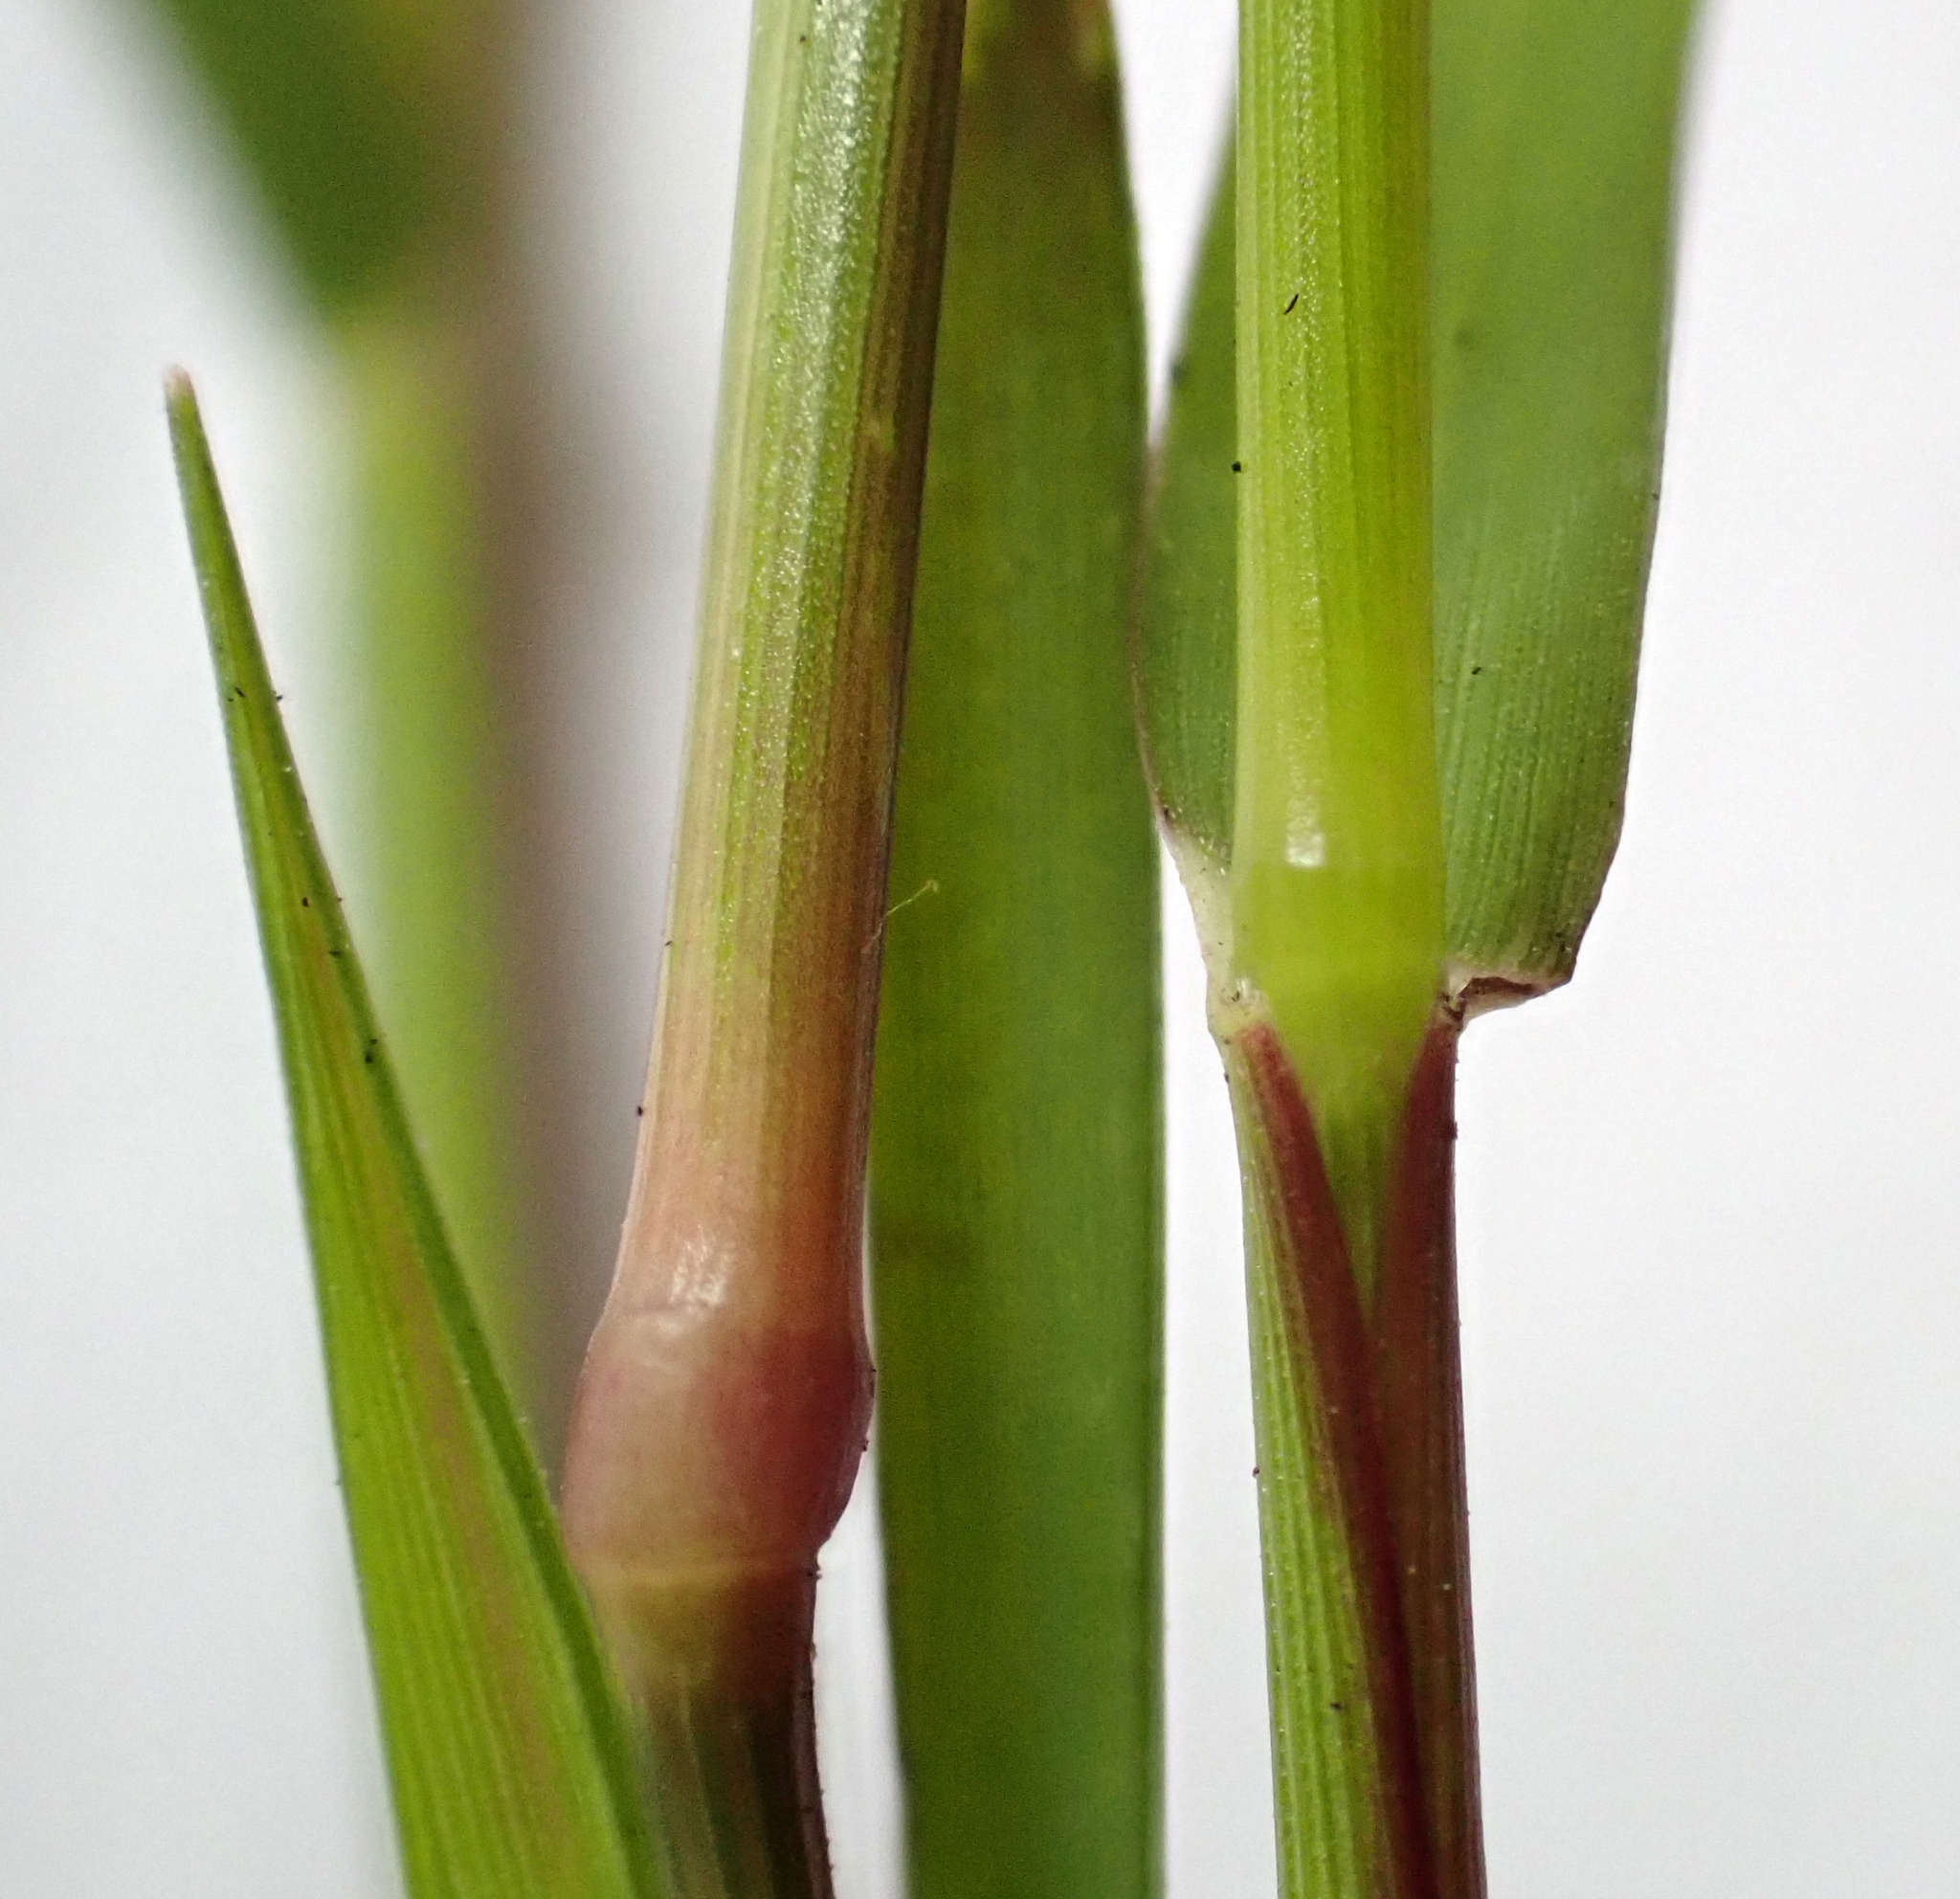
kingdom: Plantae
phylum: Tracheophyta
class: Liliopsida
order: Poales
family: Poaceae
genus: Eragrostis
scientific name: Eragrostis multicaulis
